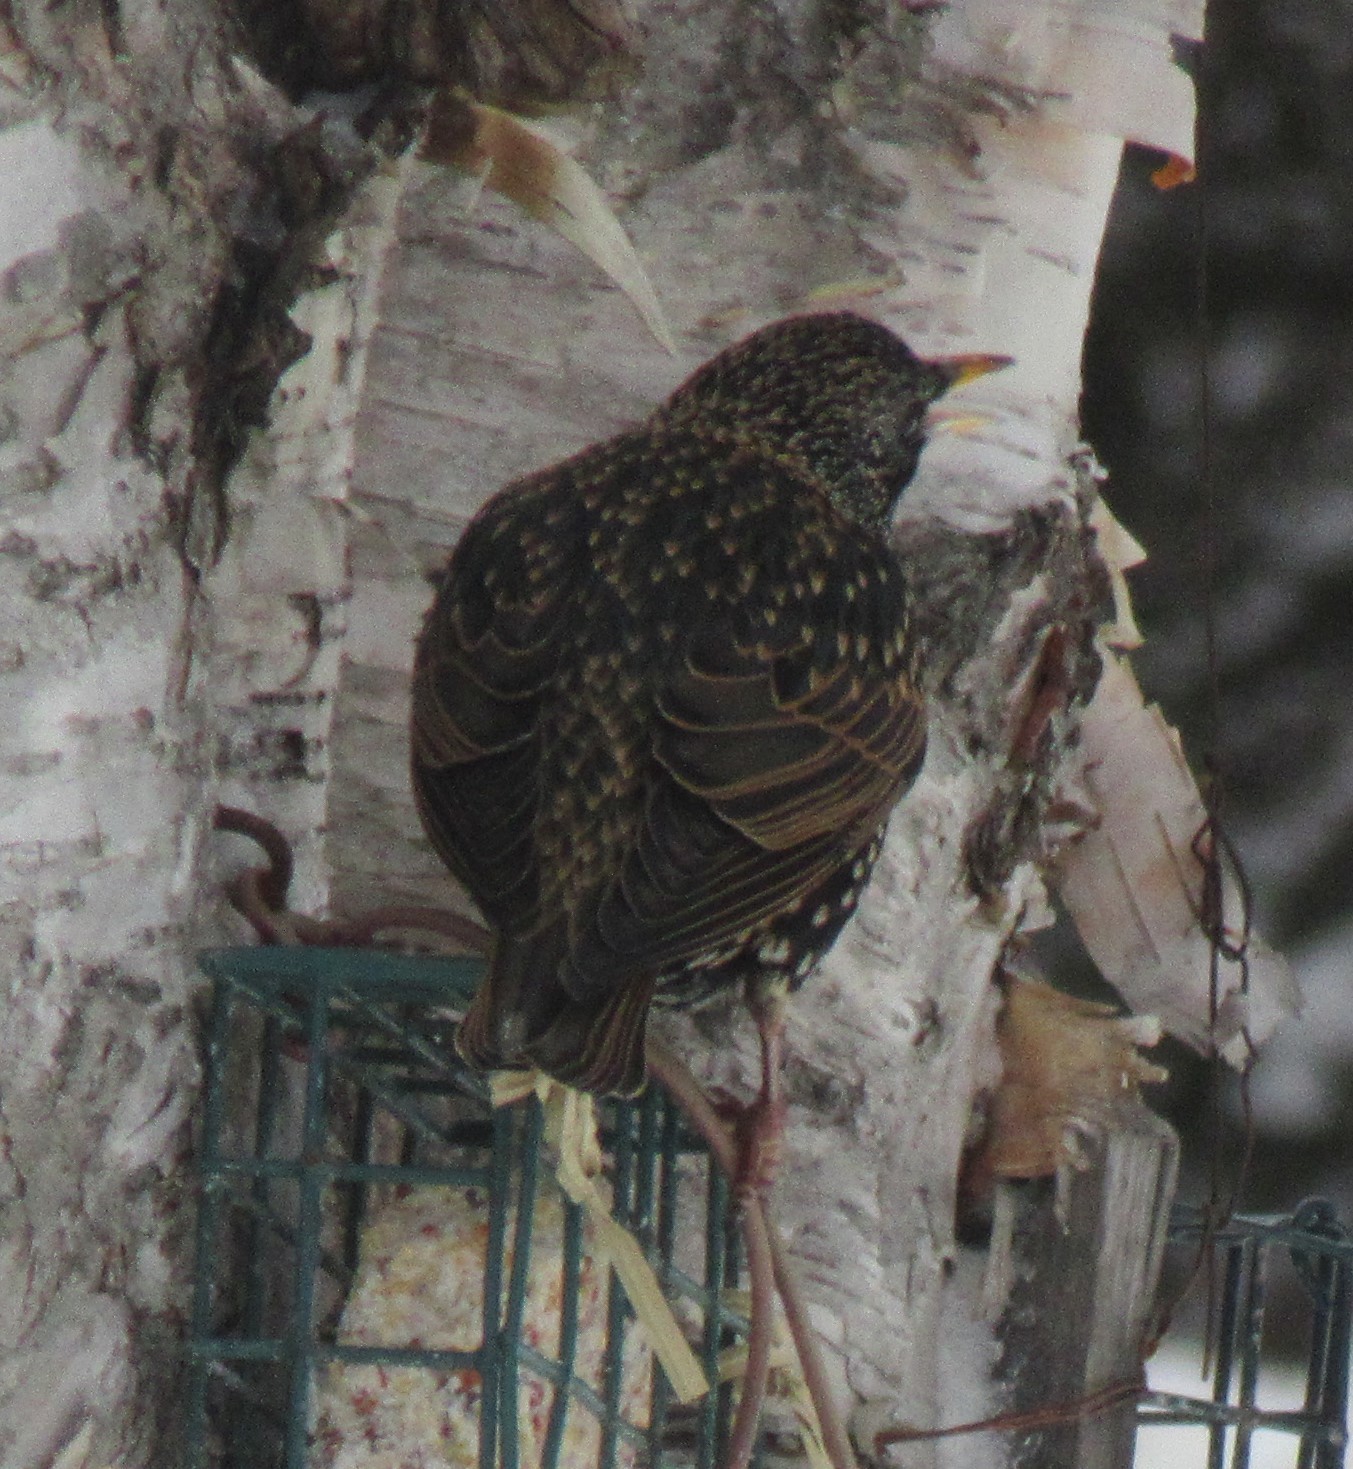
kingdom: Animalia
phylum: Chordata
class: Aves
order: Passeriformes
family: Sturnidae
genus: Sturnus
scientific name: Sturnus vulgaris
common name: Common starling
